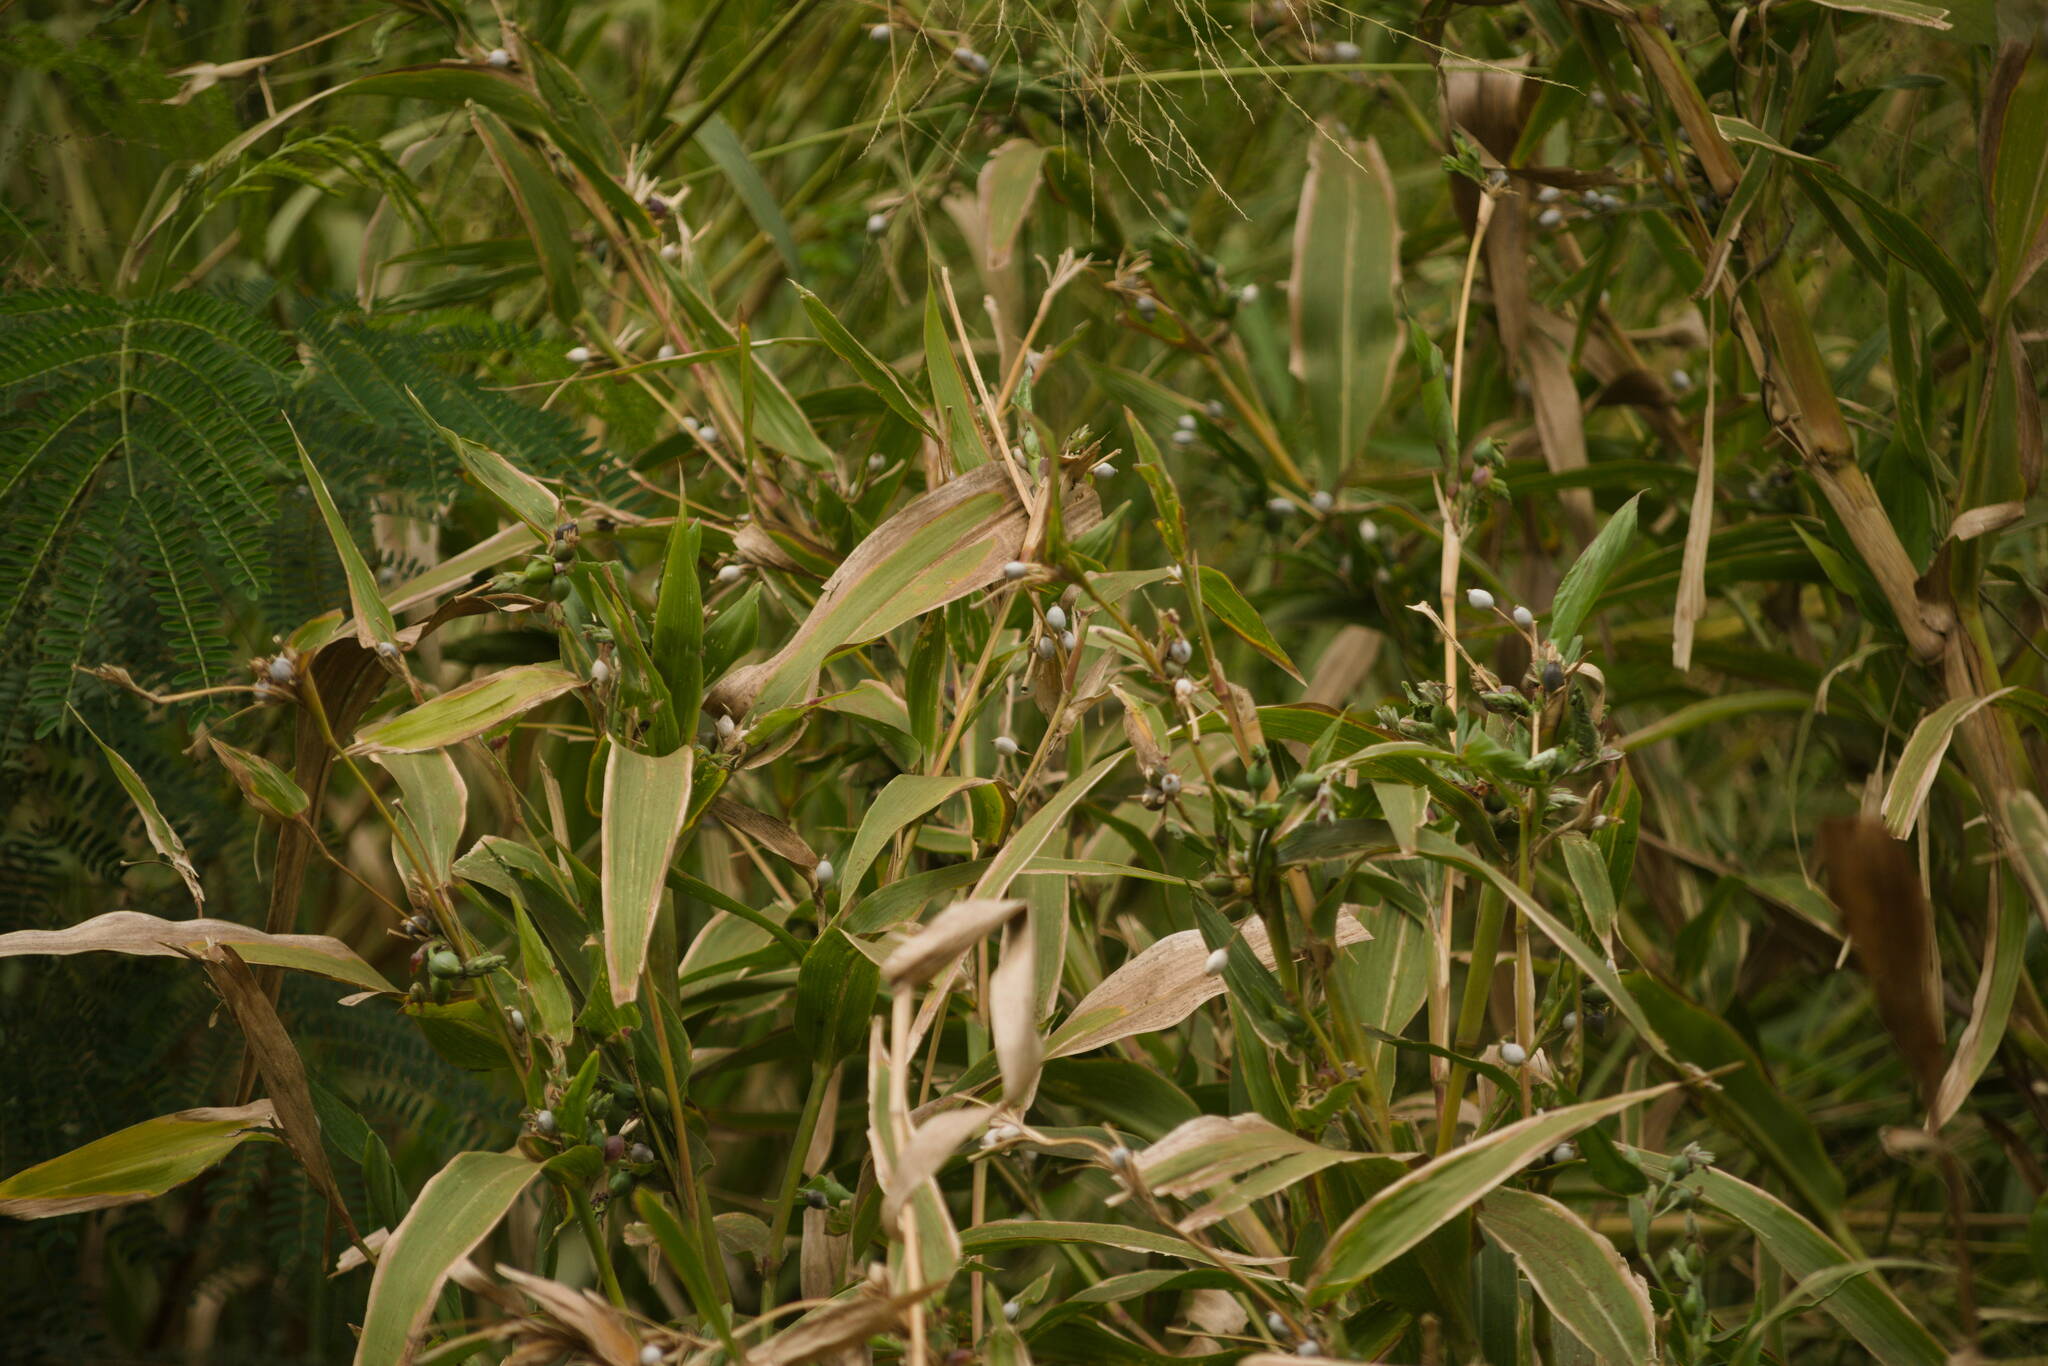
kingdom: Plantae
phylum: Tracheophyta
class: Liliopsida
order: Poales
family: Poaceae
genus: Coix
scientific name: Coix lacryma-jobi
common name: Job's tears
